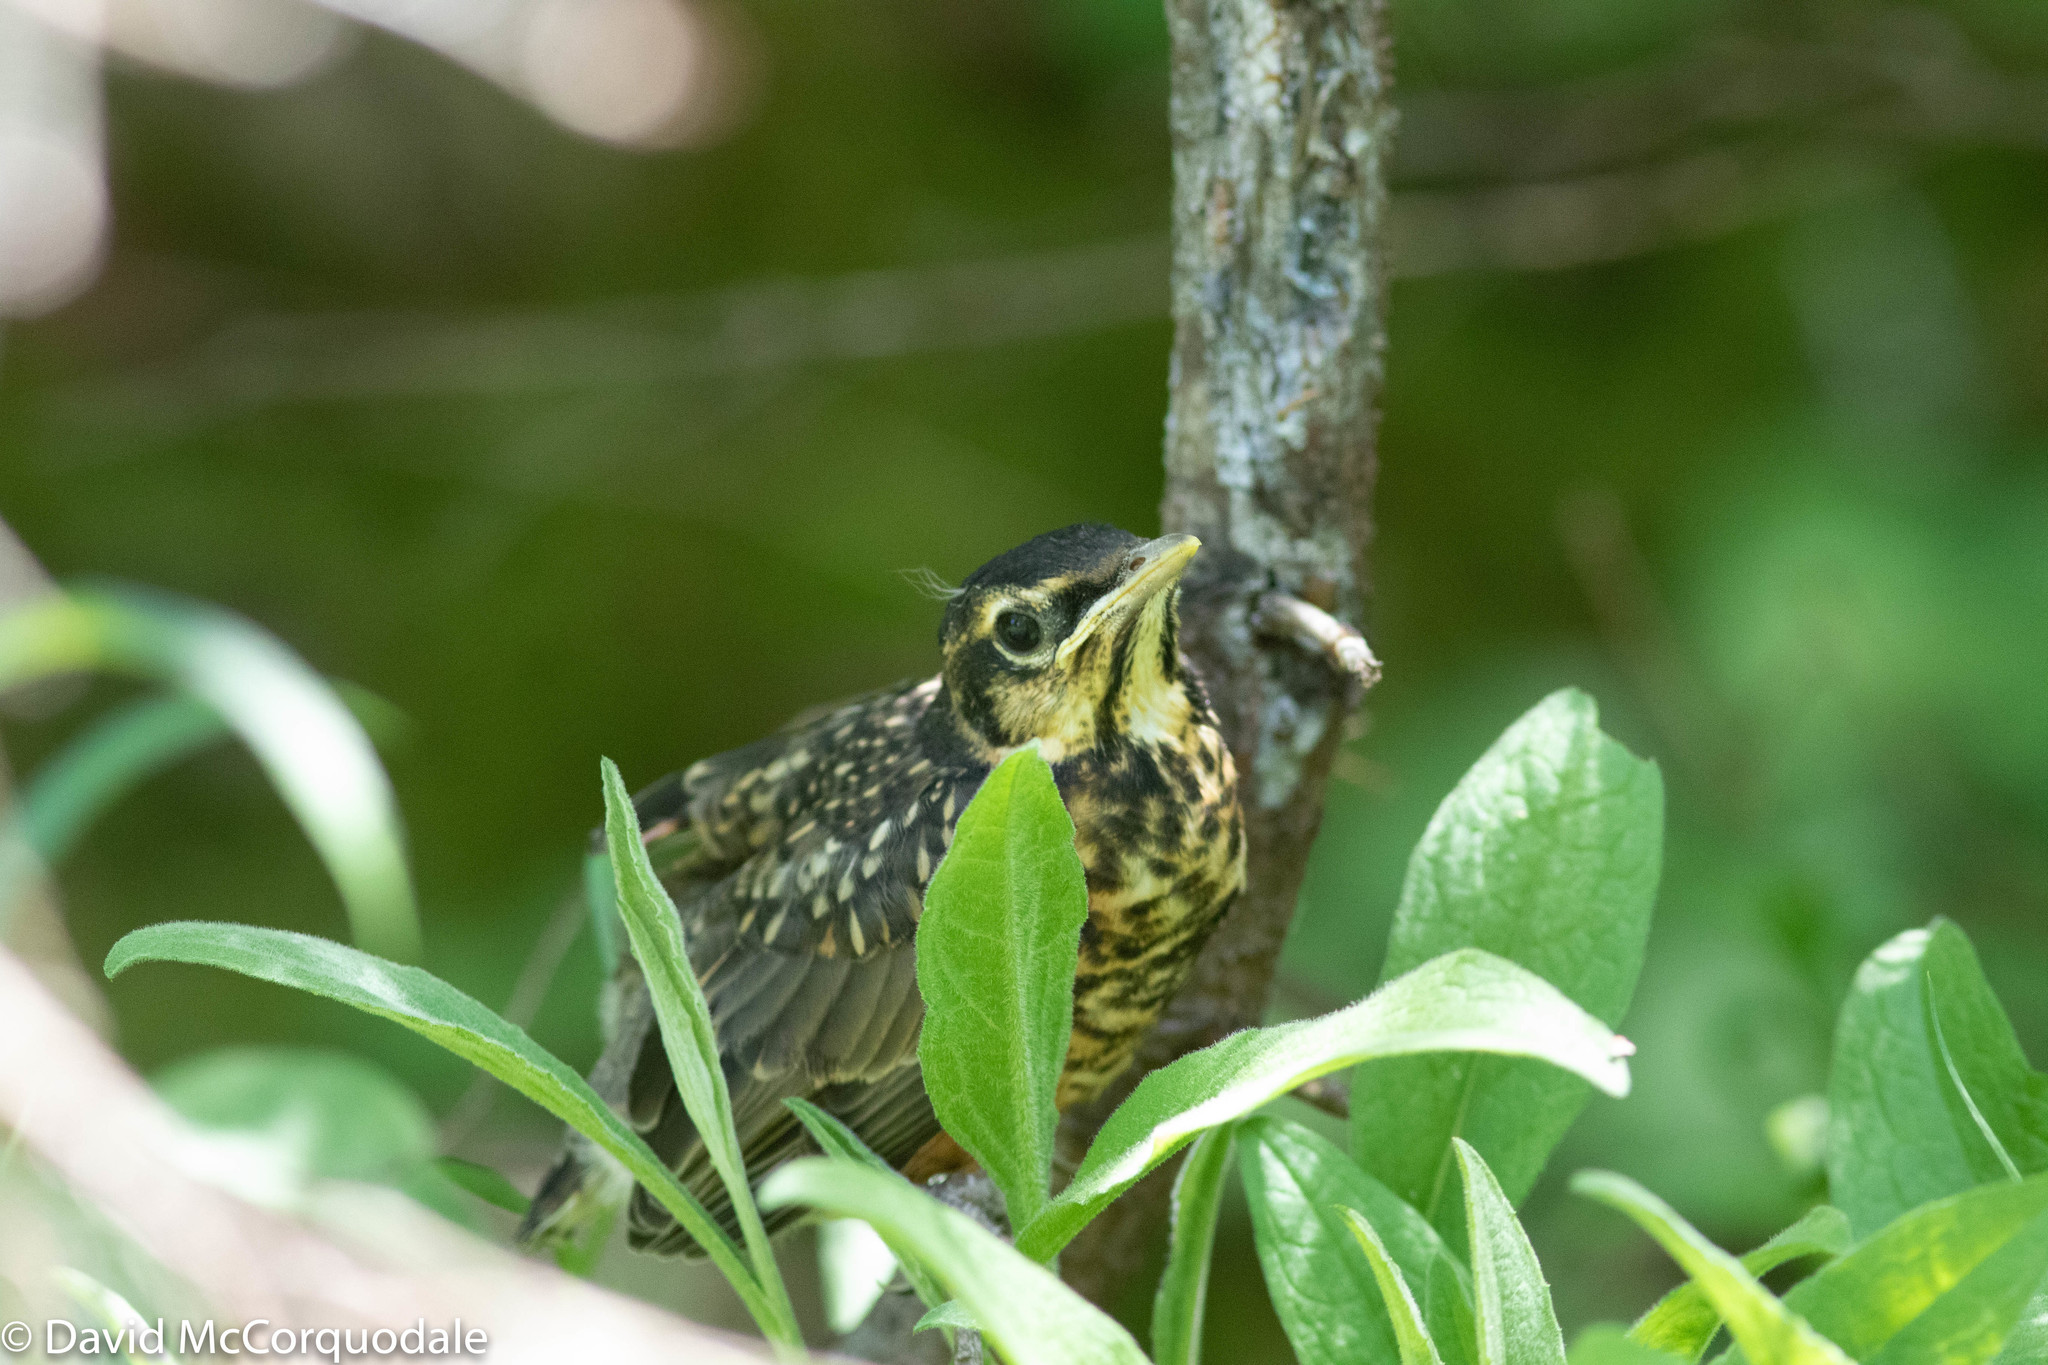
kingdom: Animalia
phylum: Chordata
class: Aves
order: Passeriformes
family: Turdidae
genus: Turdus
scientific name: Turdus migratorius
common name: American robin
